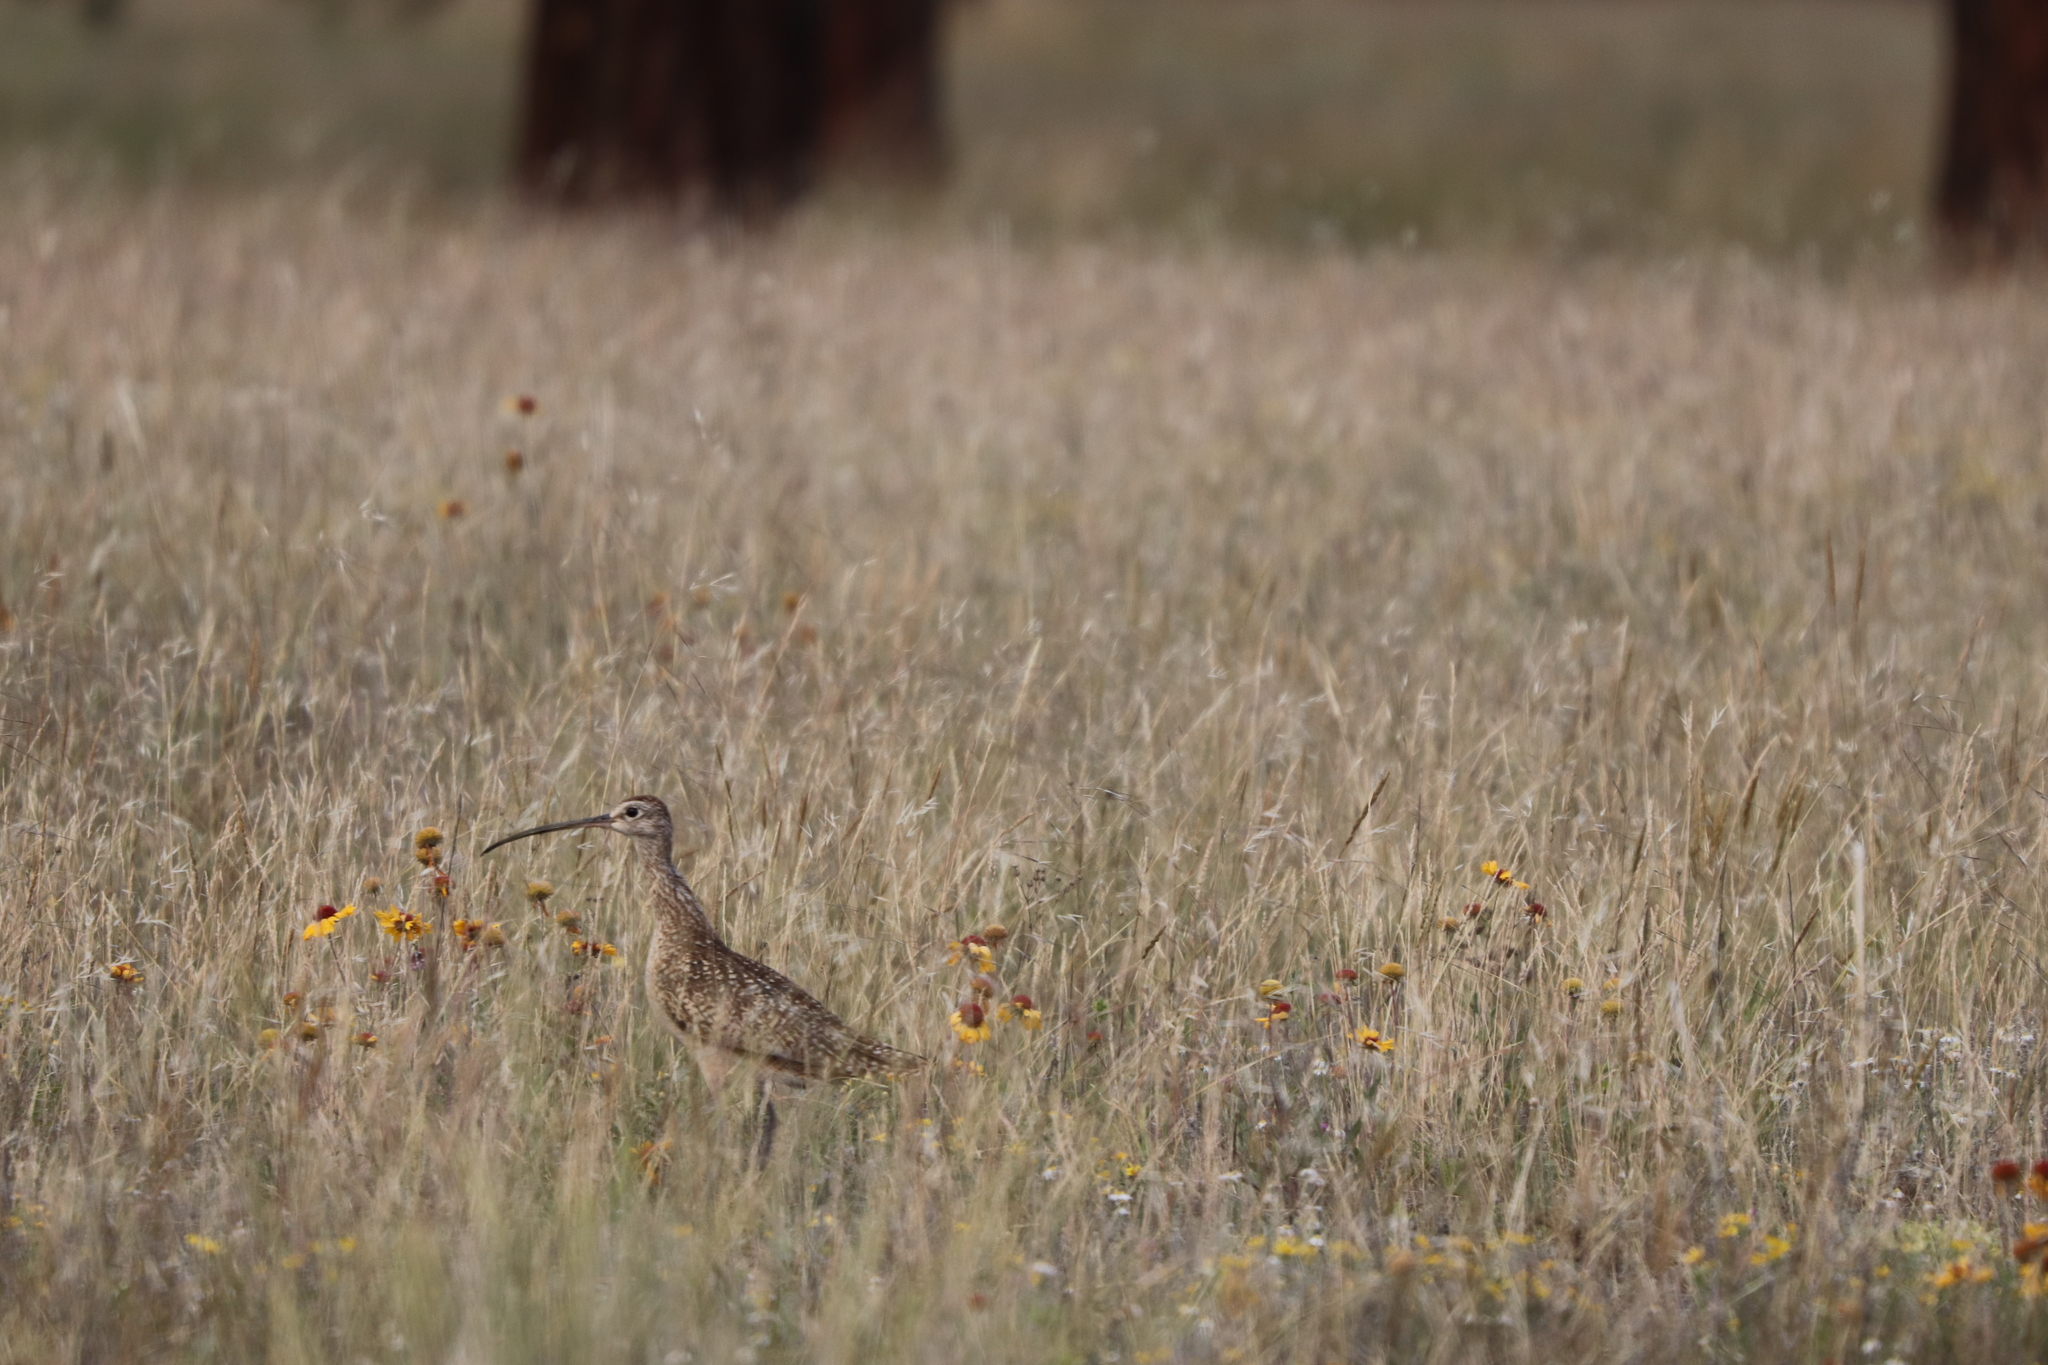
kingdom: Animalia
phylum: Chordata
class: Aves
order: Charadriiformes
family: Scolopacidae
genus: Numenius
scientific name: Numenius americanus
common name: Long-billed curlew
